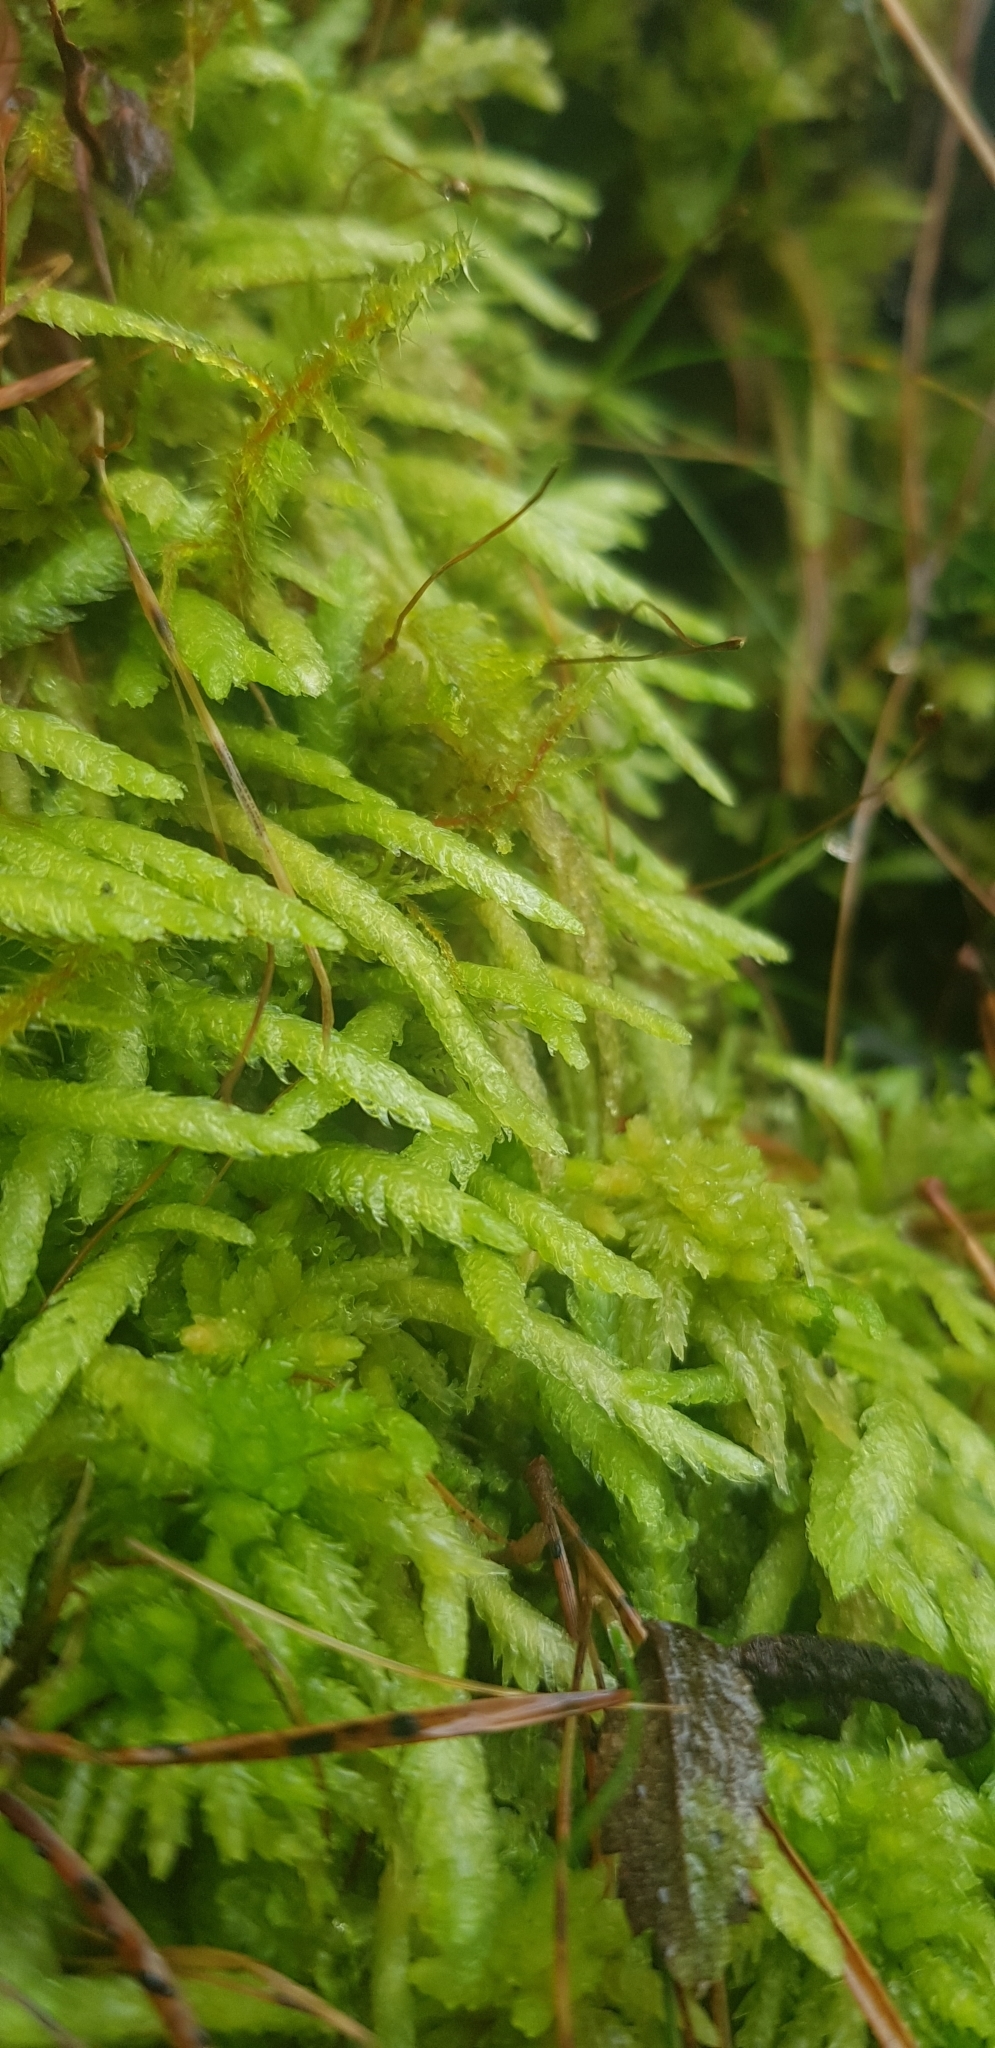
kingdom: Plantae
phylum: Bryophyta
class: Bryopsida
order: Hypnales
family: Plagiotheciaceae
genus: Plagiothecium
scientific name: Plagiothecium undulatum
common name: Waved silk-moss
